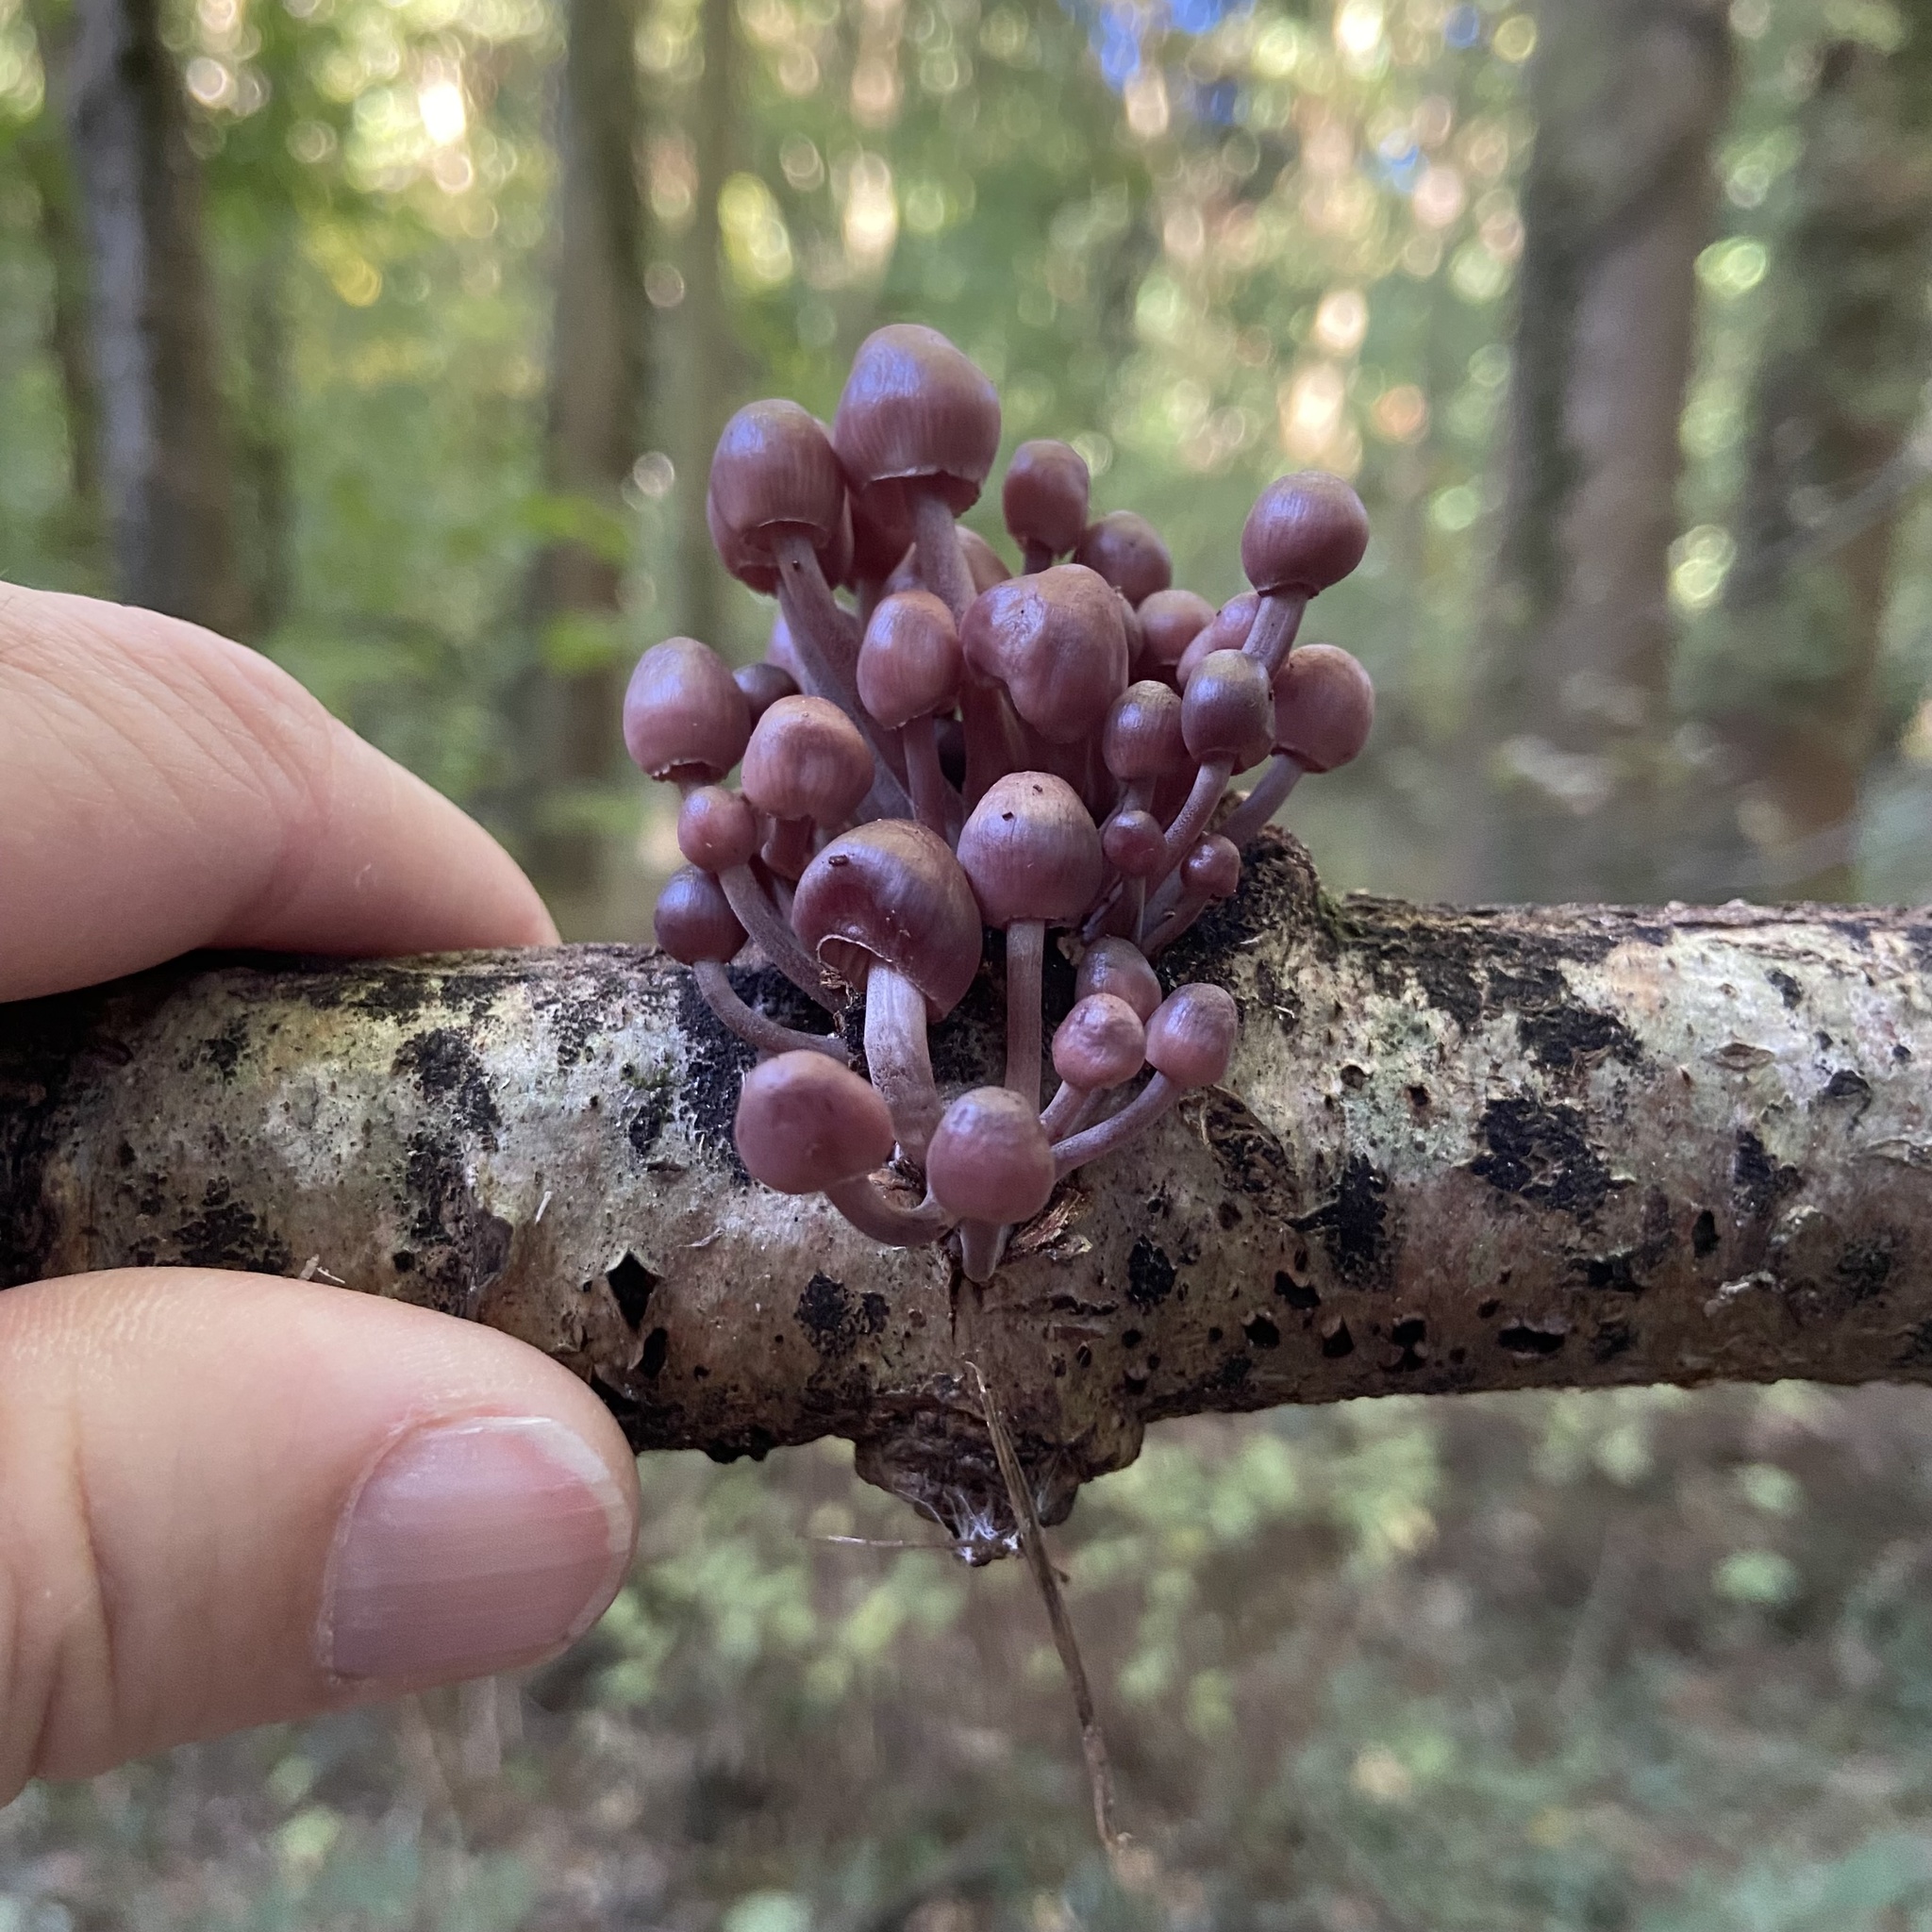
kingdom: Fungi
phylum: Basidiomycota
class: Agaricomycetes
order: Agaricales
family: Mycenaceae
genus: Mycena
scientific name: Mycena haematopus
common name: Burgundydrop bonnet
